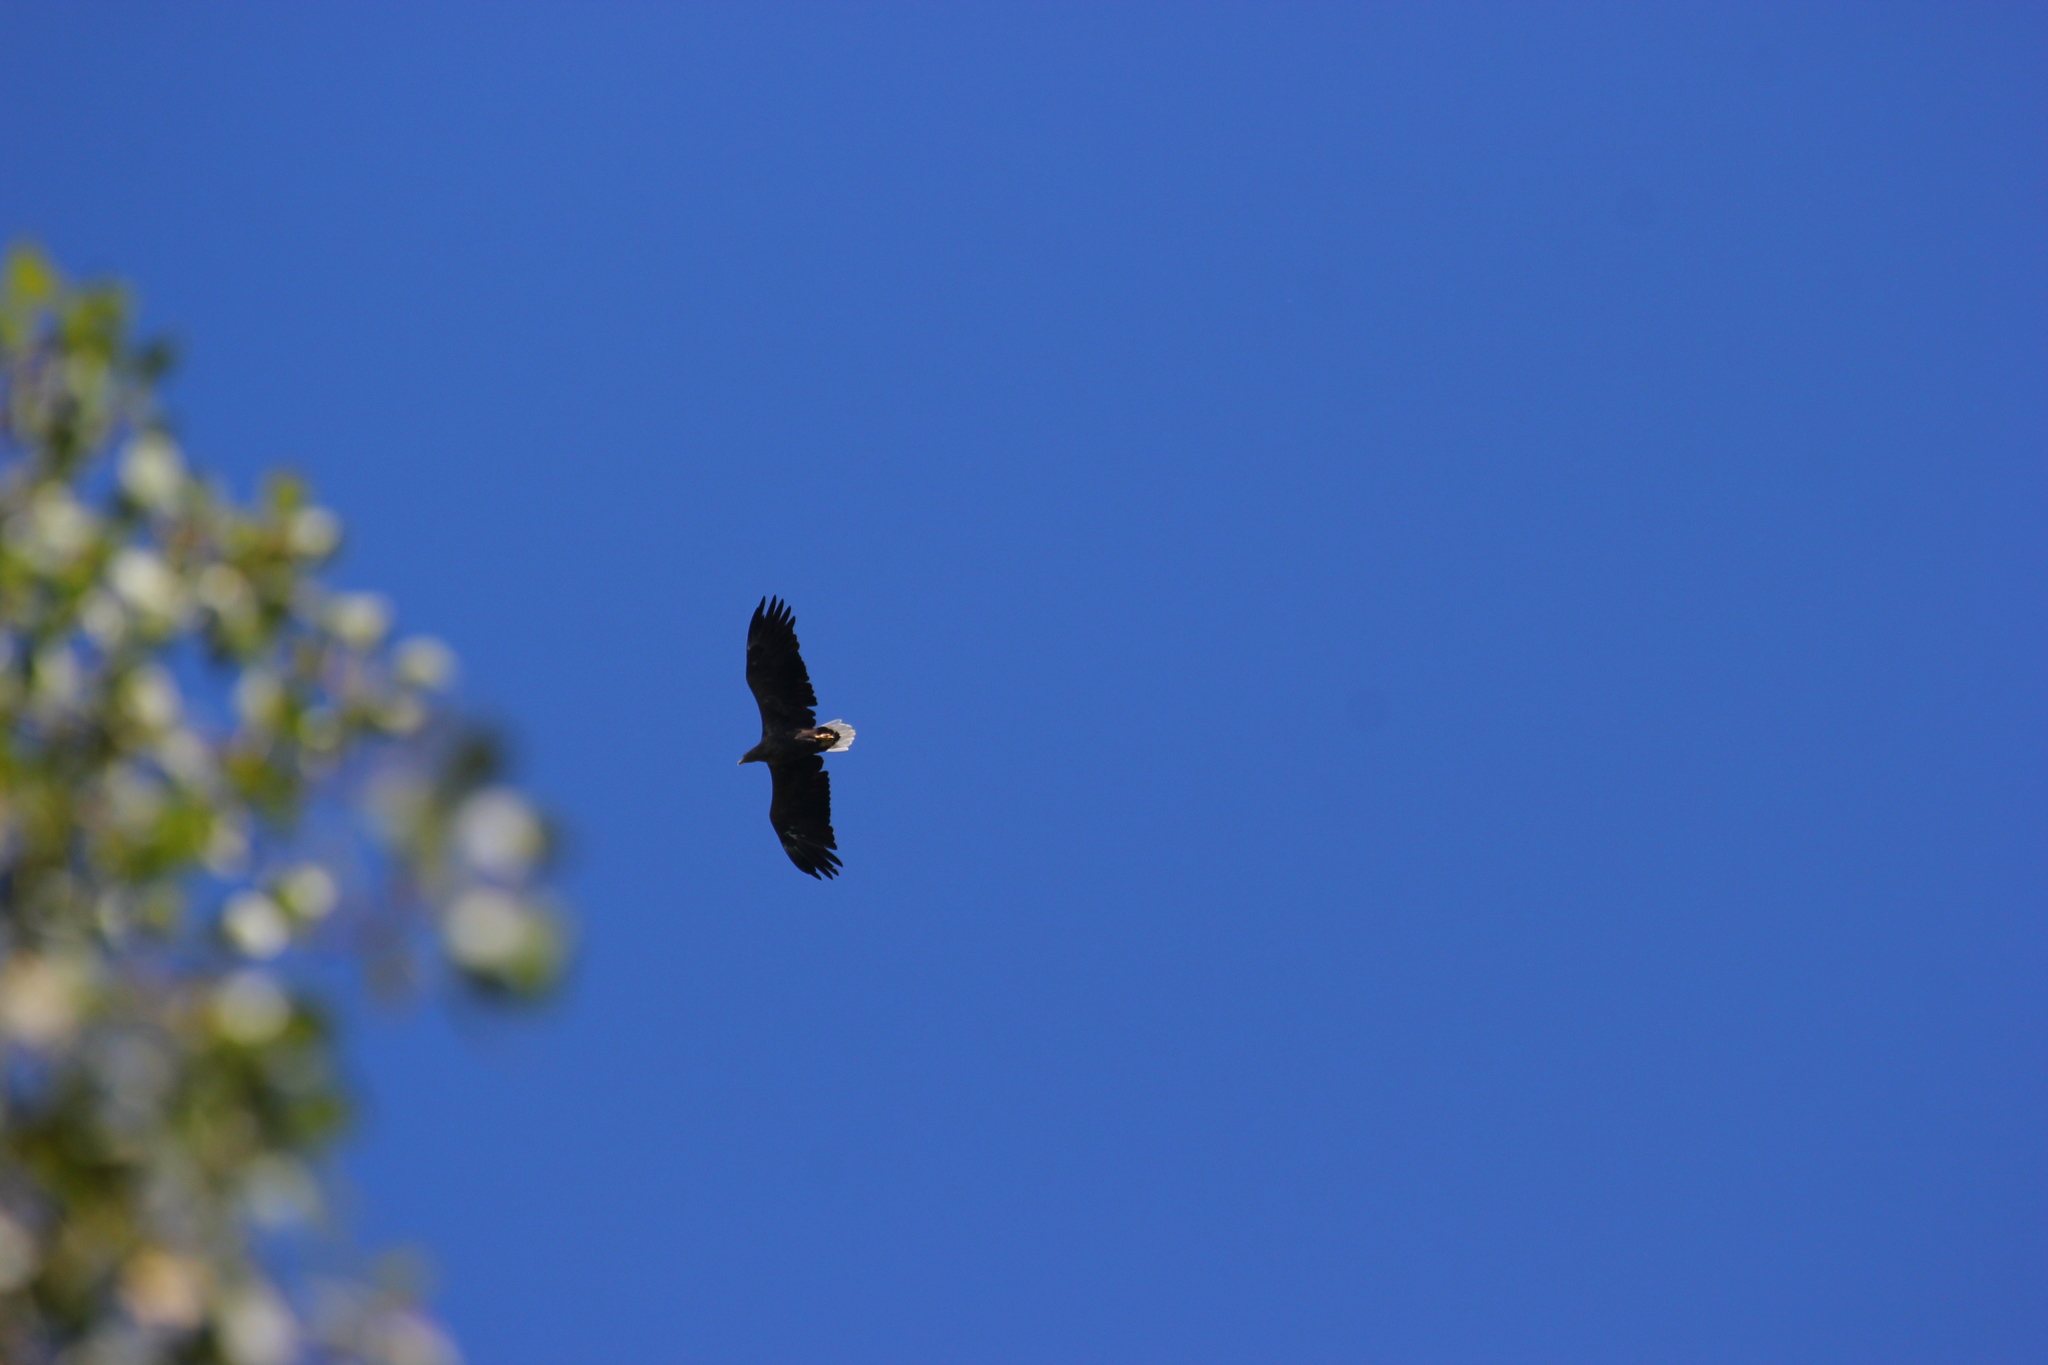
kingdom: Animalia
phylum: Chordata
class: Aves
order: Accipitriformes
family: Accipitridae
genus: Haliaeetus
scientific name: Haliaeetus albicilla
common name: White-tailed eagle
